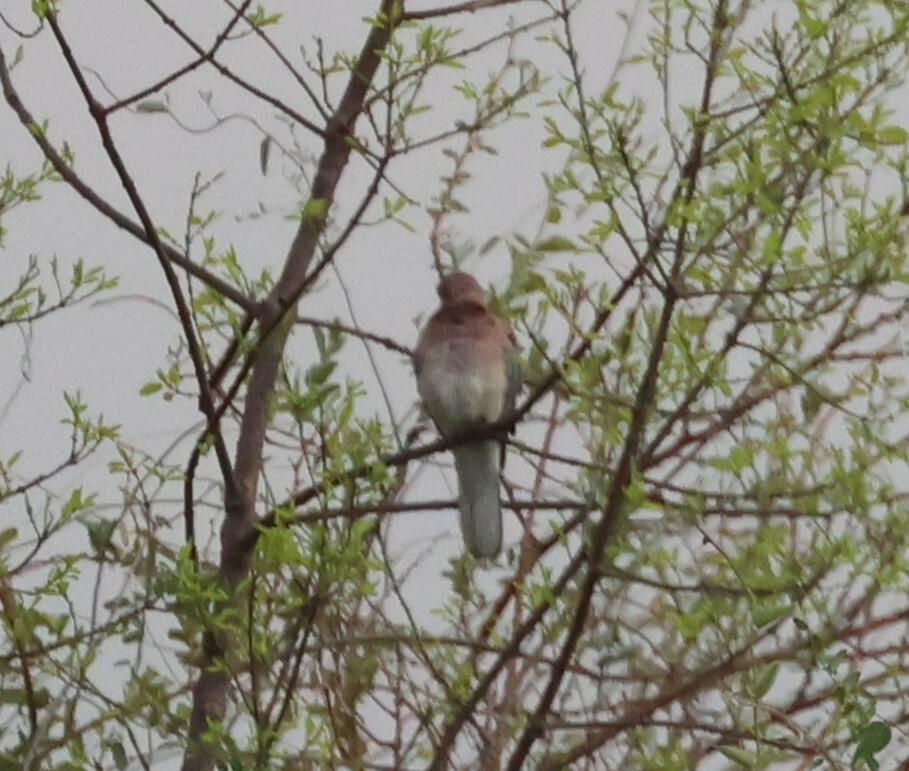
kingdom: Animalia
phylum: Chordata
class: Aves
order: Columbiformes
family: Columbidae
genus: Spilopelia
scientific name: Spilopelia senegalensis
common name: Laughing dove
